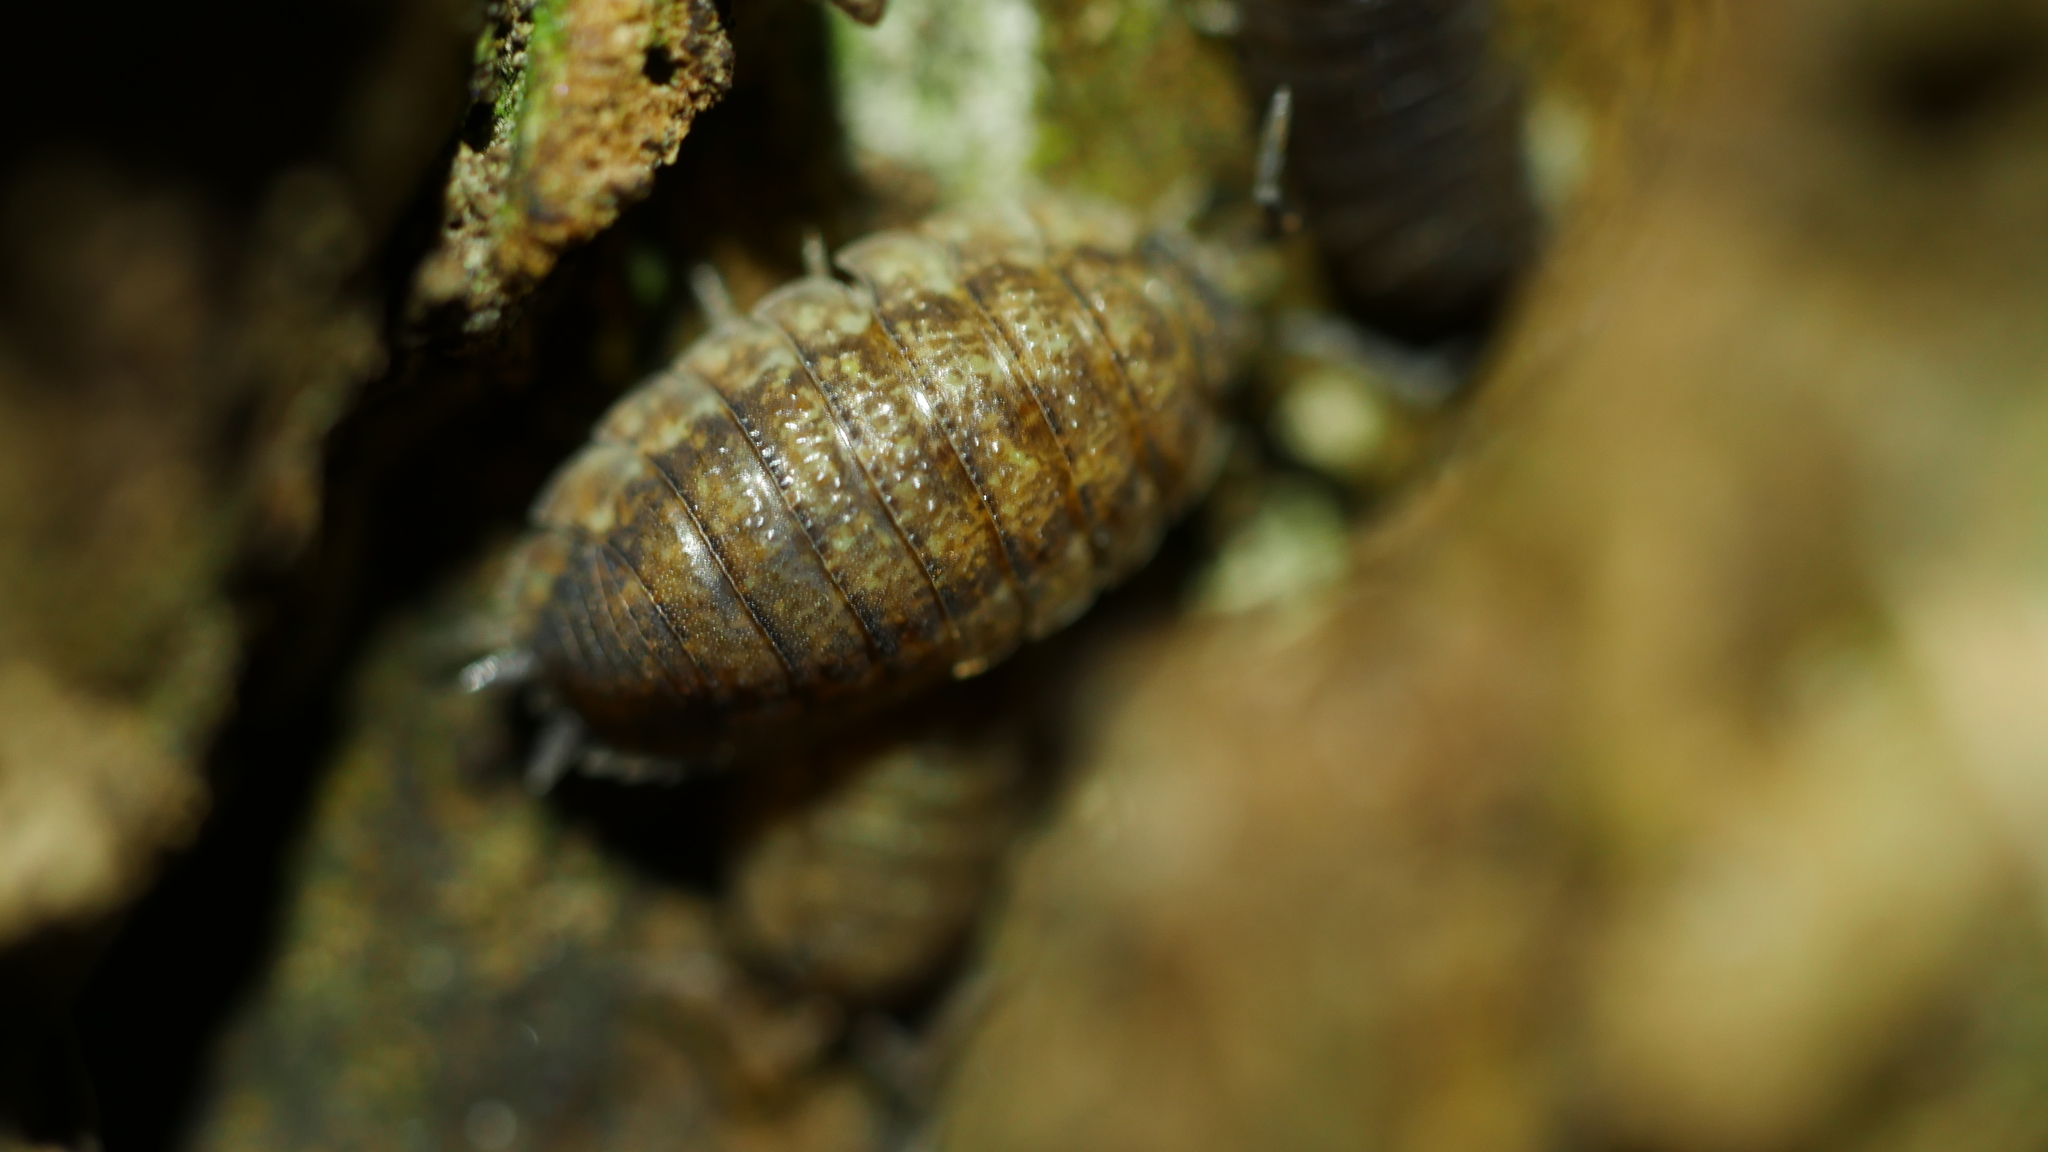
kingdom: Animalia
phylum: Arthropoda
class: Malacostraca
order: Isopoda
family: Porcellionidae
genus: Porcellio
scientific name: Porcellio scaber
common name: Common rough woodlouse
